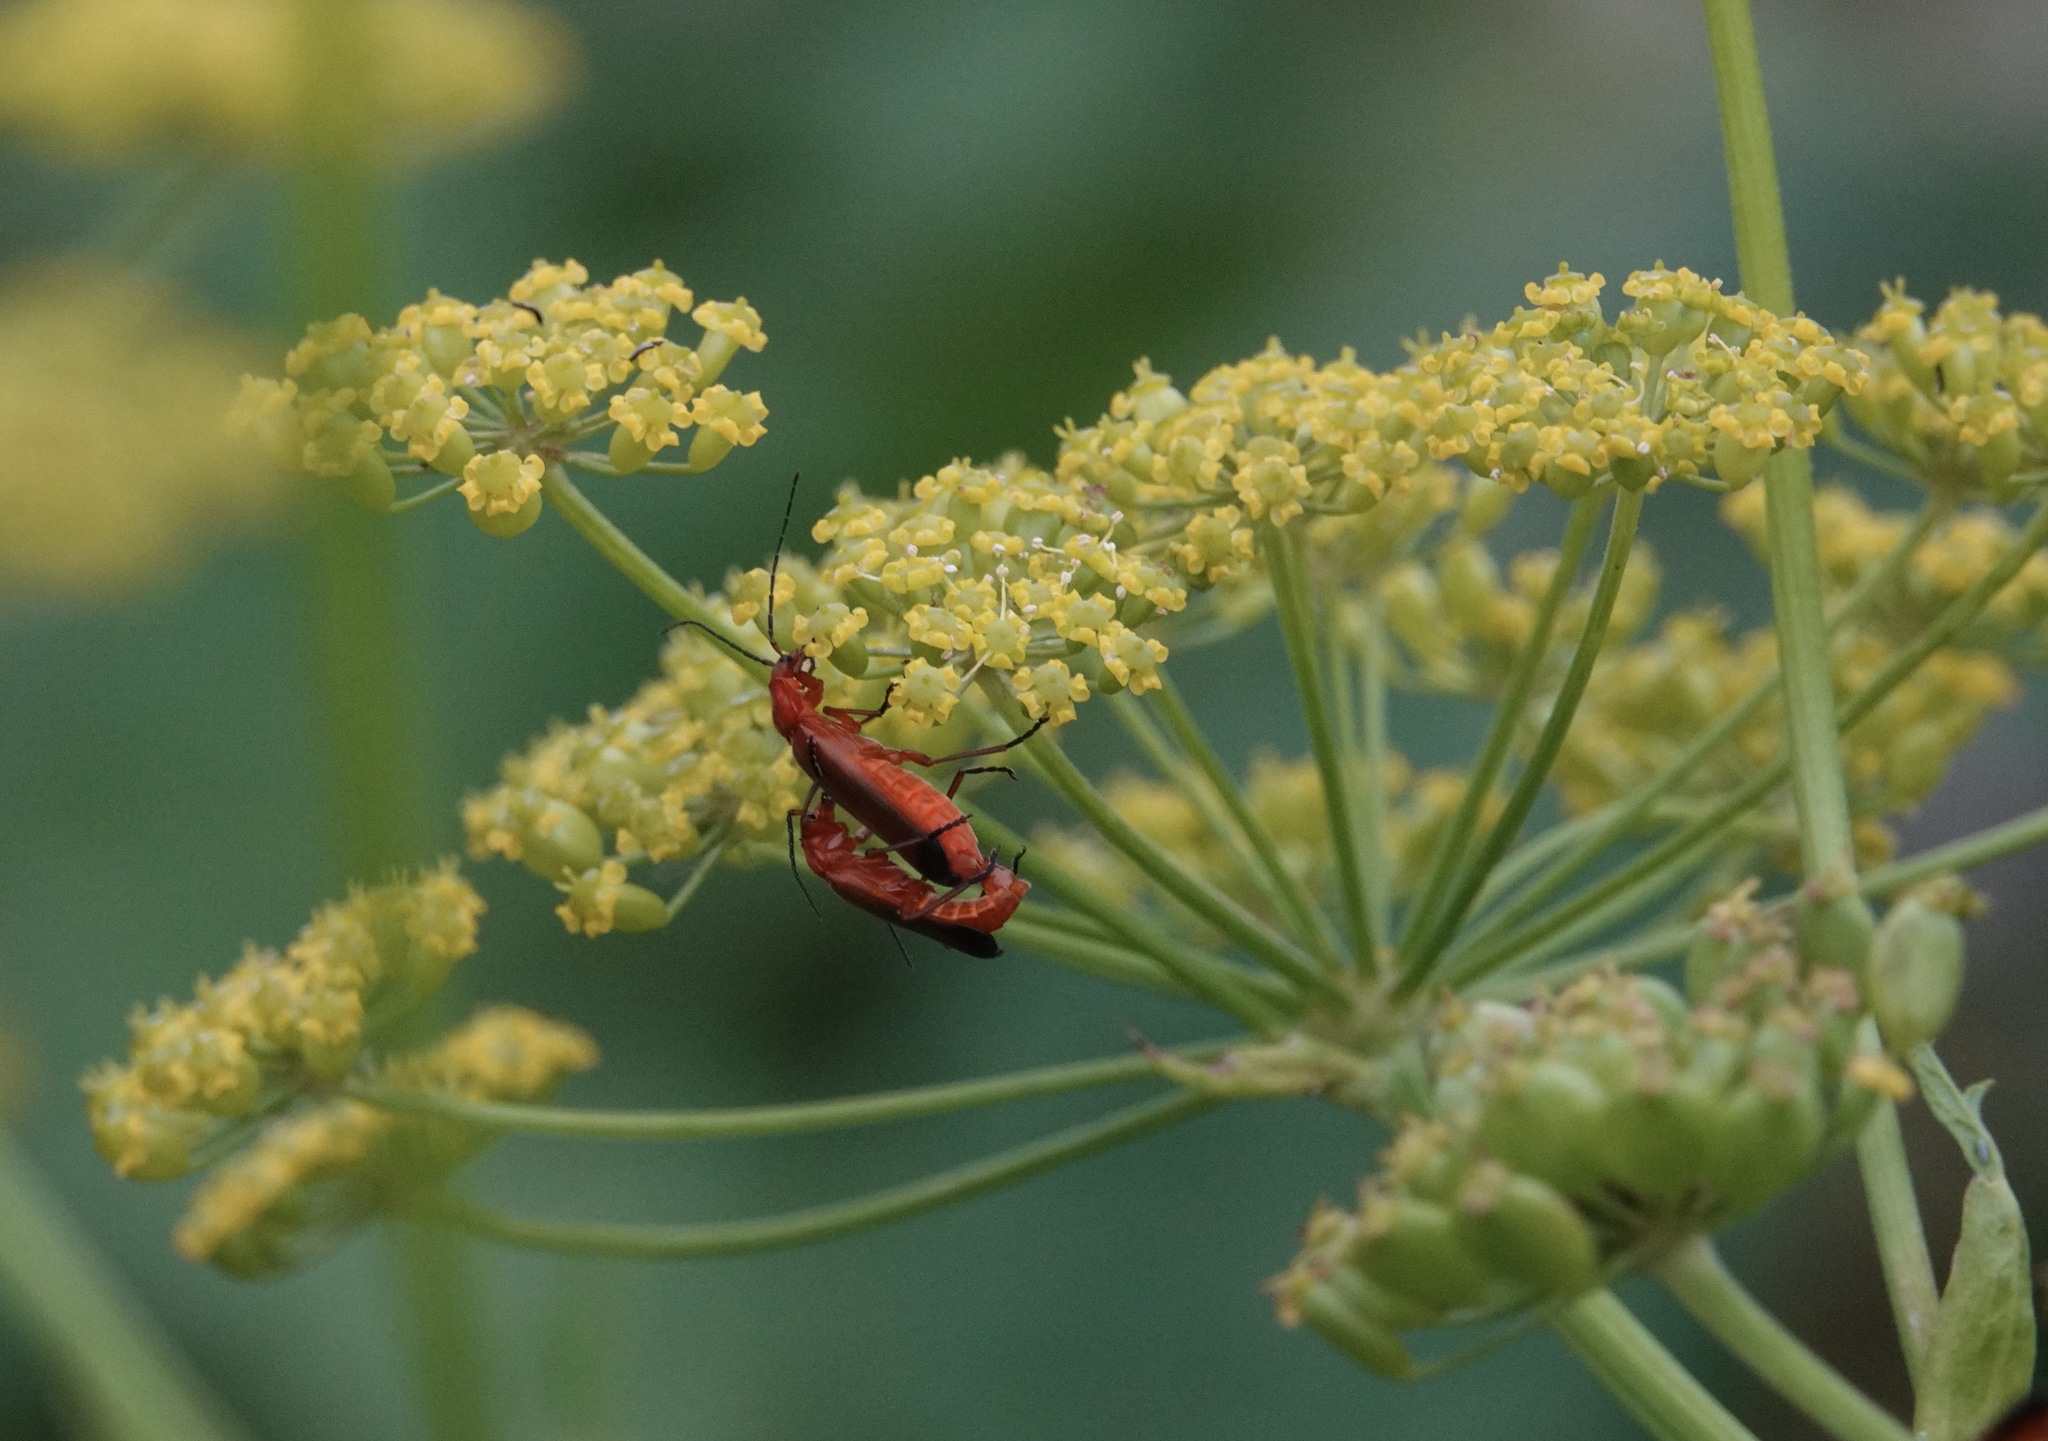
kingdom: Animalia
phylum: Arthropoda
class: Insecta
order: Coleoptera
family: Cantharidae
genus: Rhagonycha
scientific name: Rhagonycha fulva
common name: Common red soldier beetle
